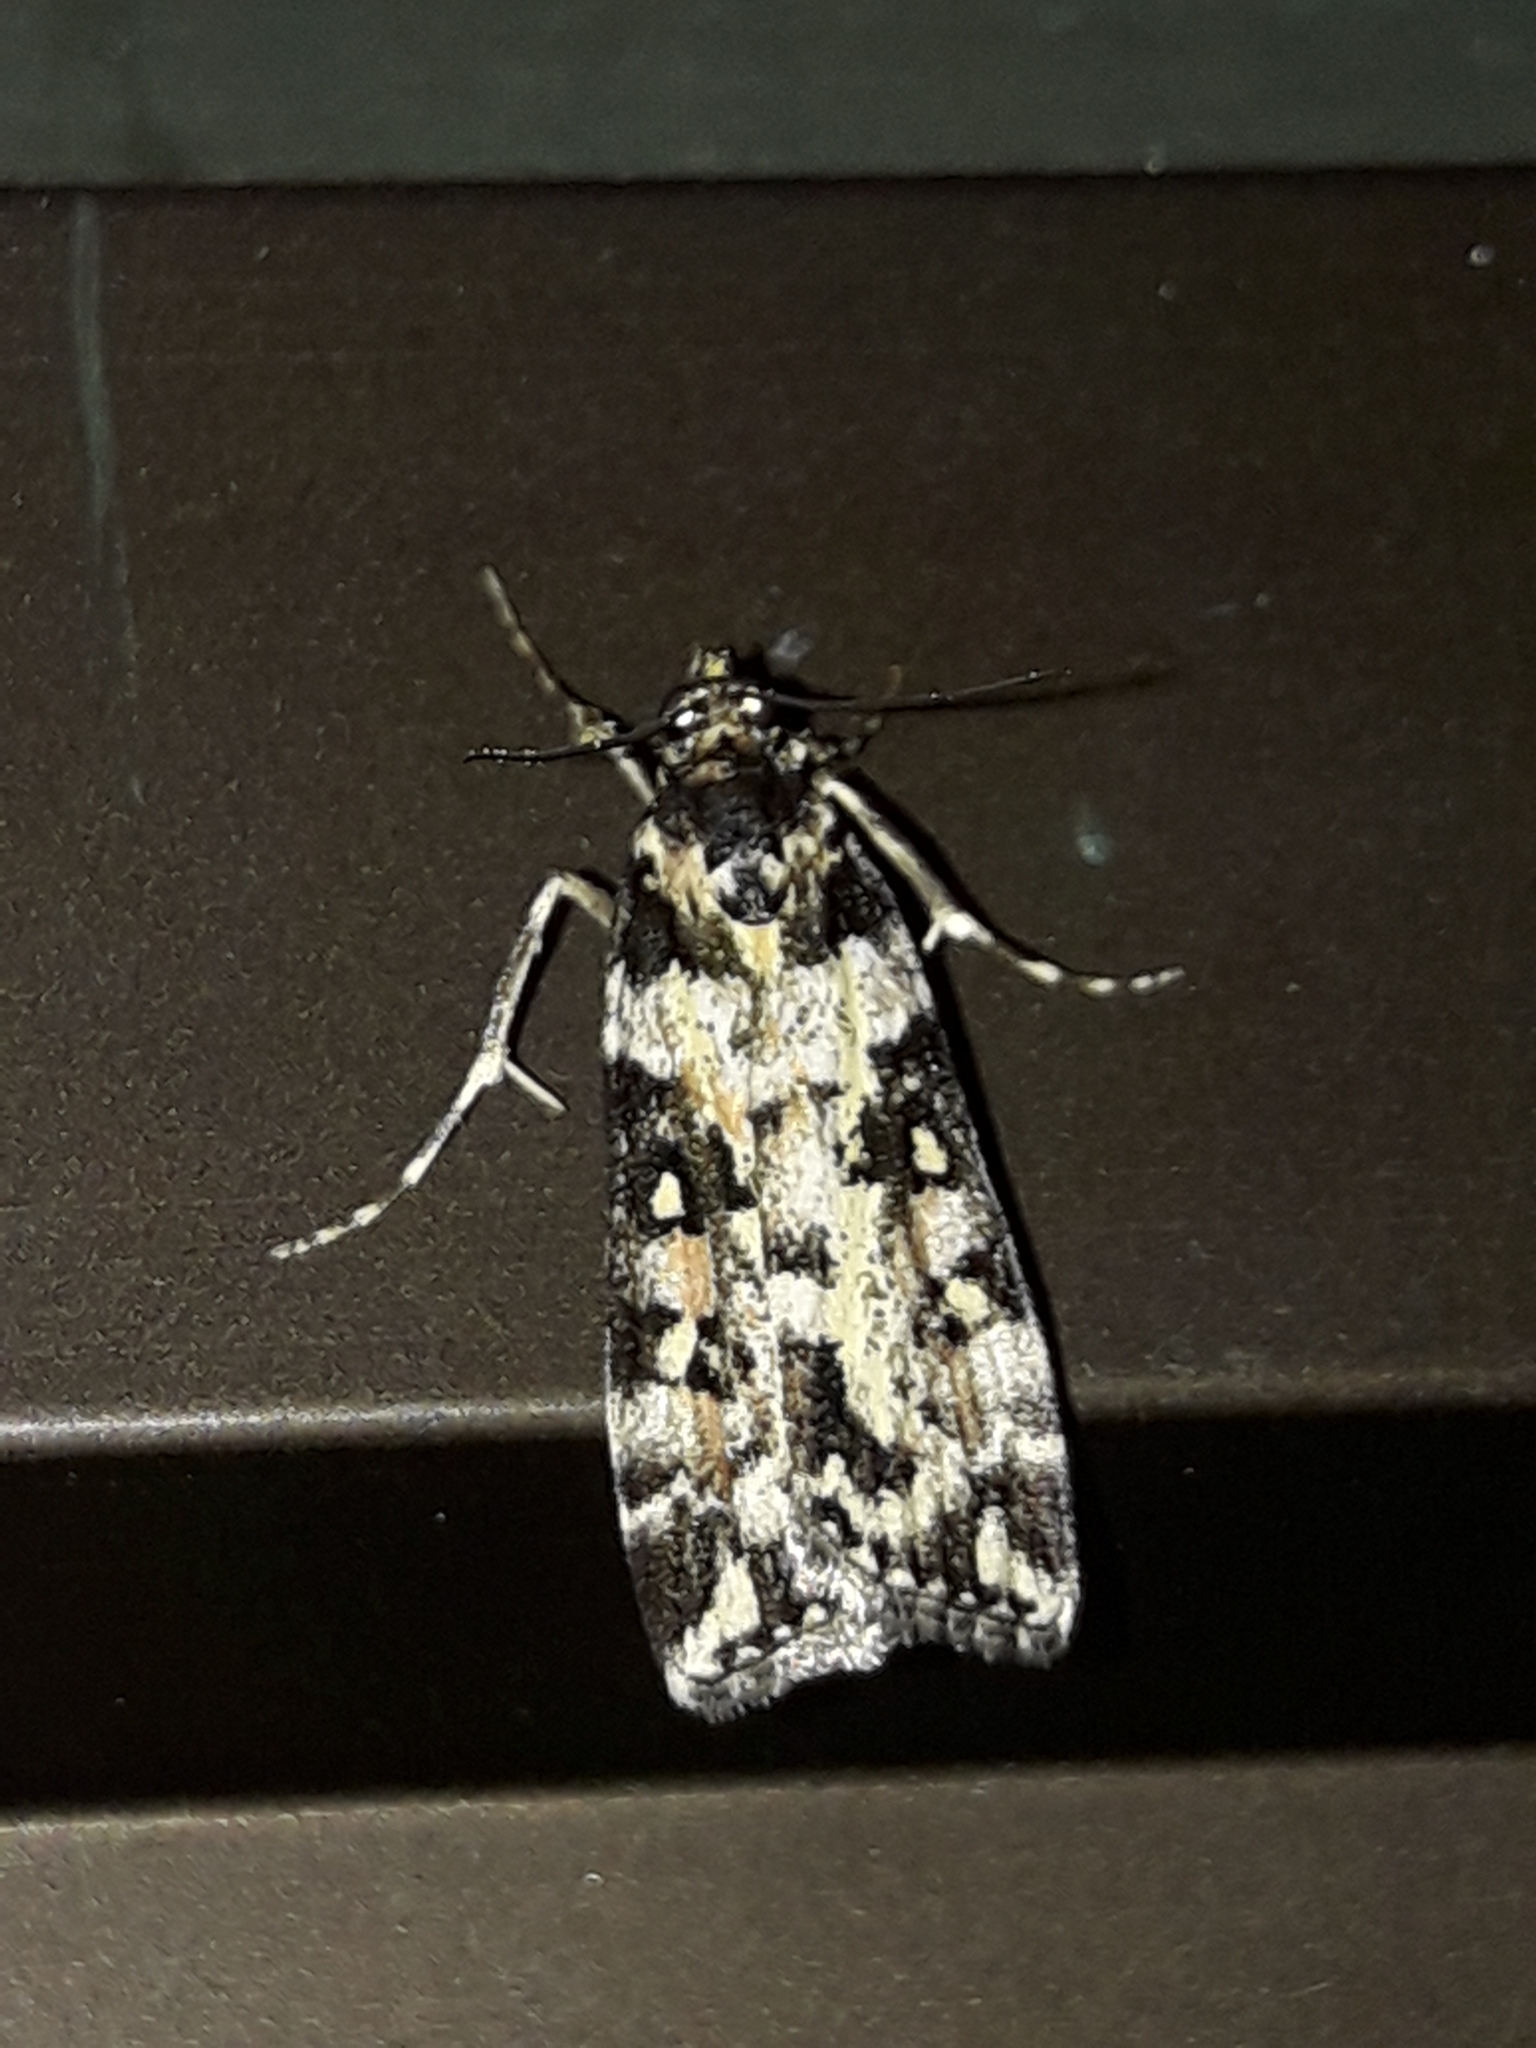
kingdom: Animalia
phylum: Arthropoda
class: Insecta
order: Lepidoptera
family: Crambidae
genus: Eudonia
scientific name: Eudonia diphtheralis
